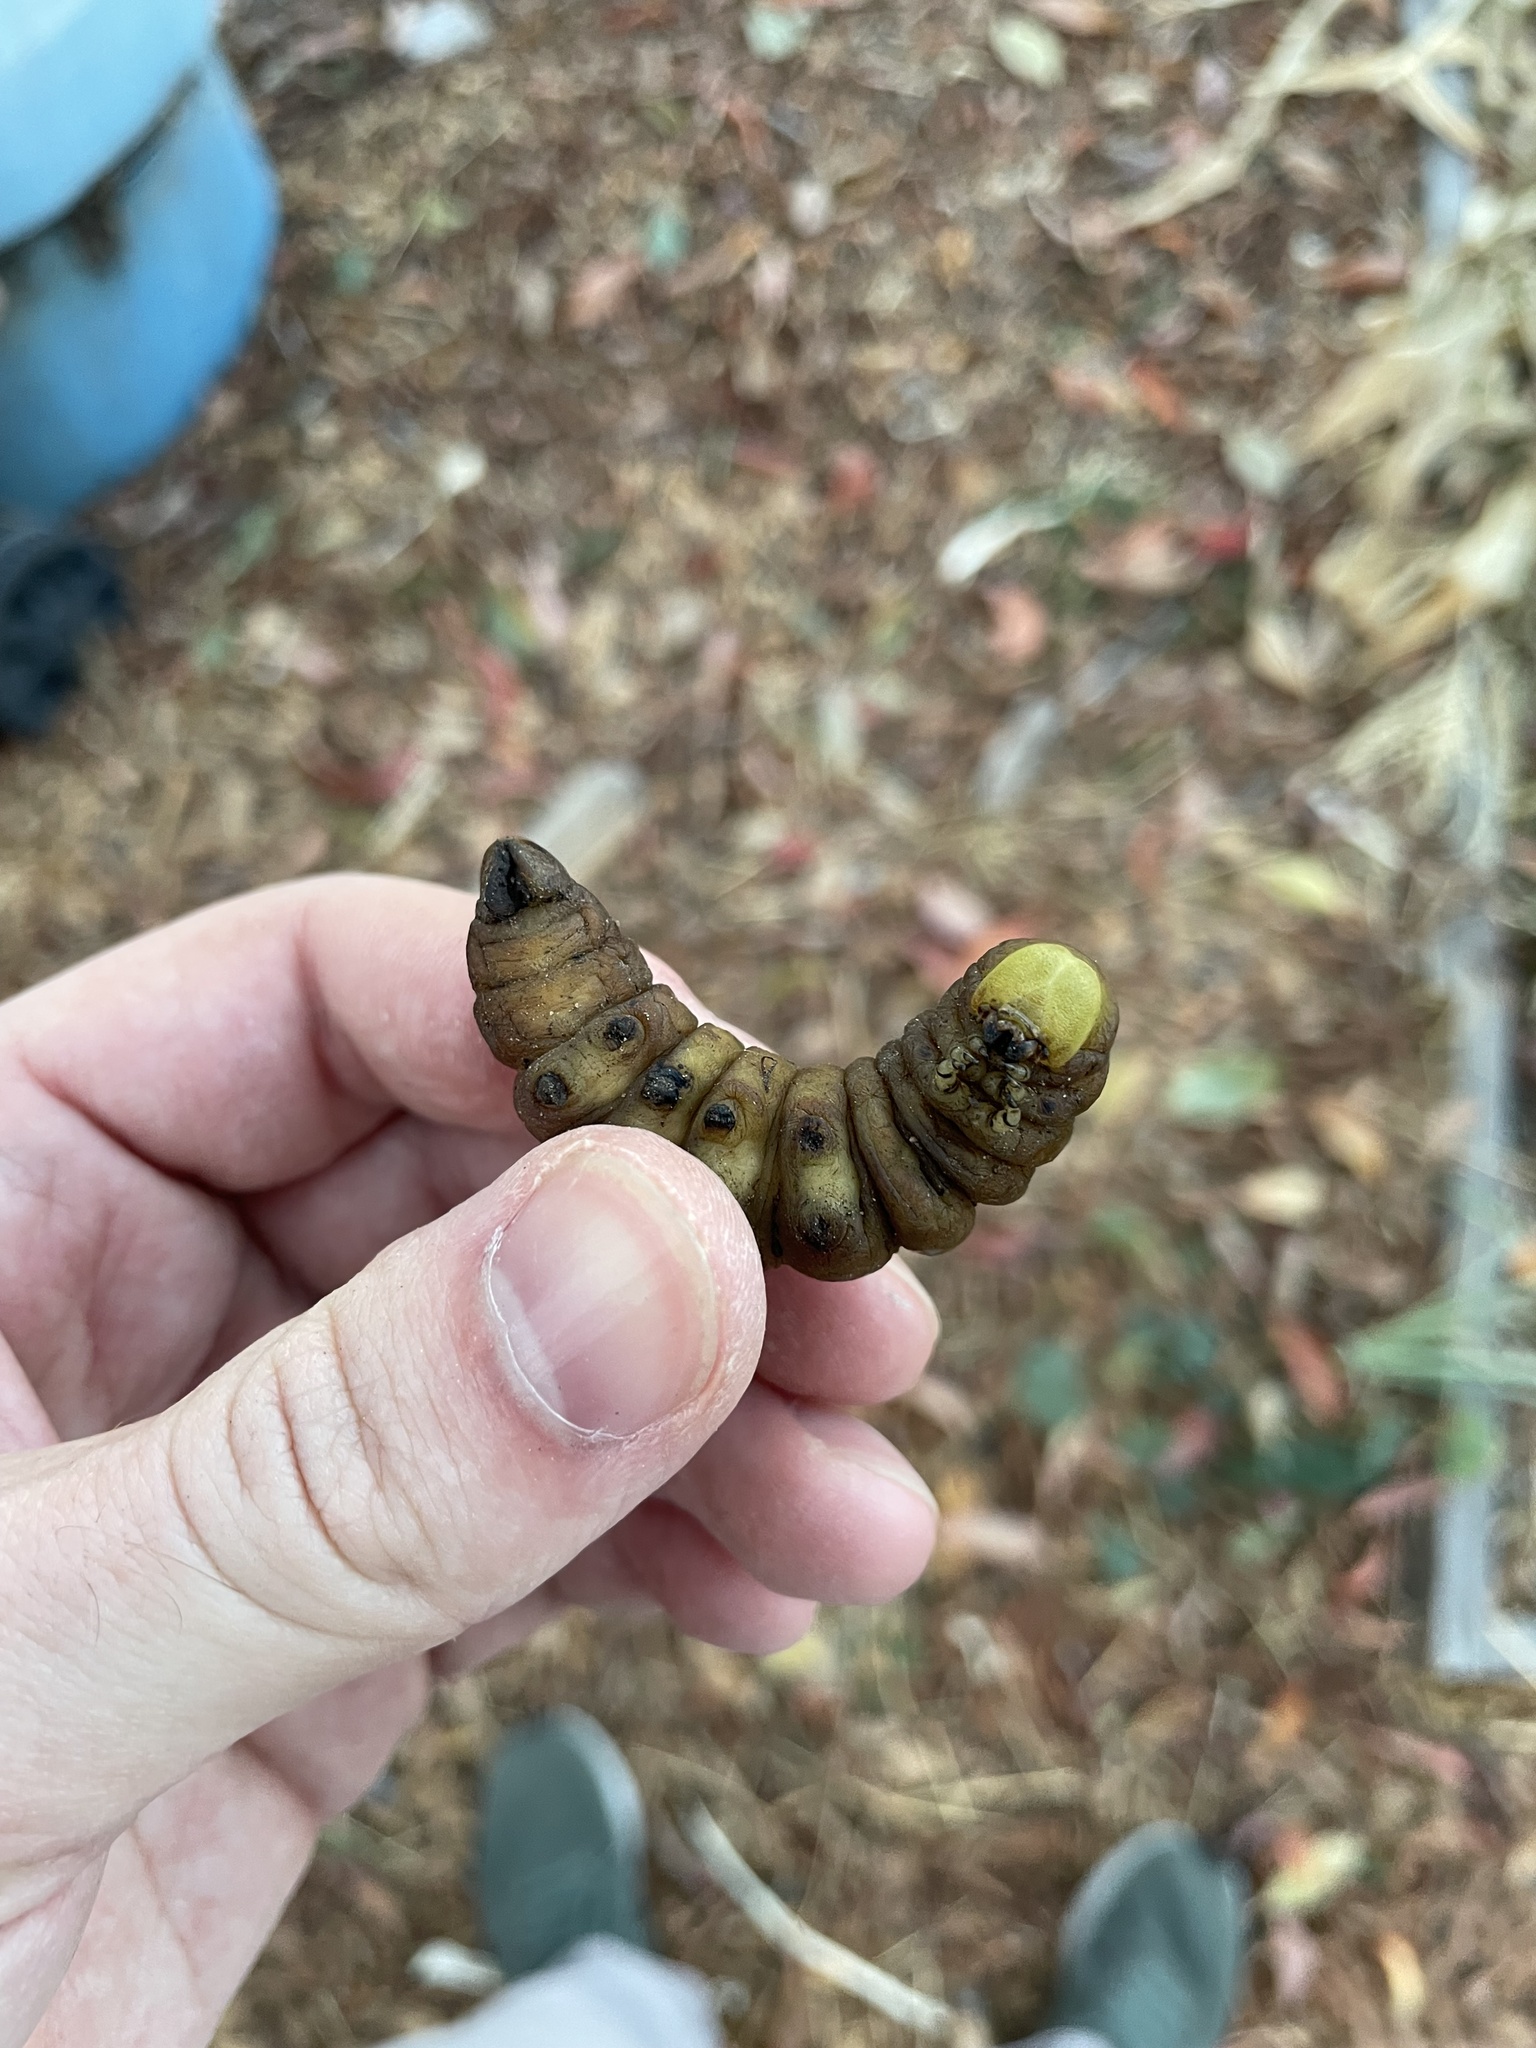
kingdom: Animalia
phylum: Arthropoda
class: Insecta
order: Lepidoptera
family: Sphingidae
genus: Manduca
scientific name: Manduca sexta
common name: Carolina sphinx
